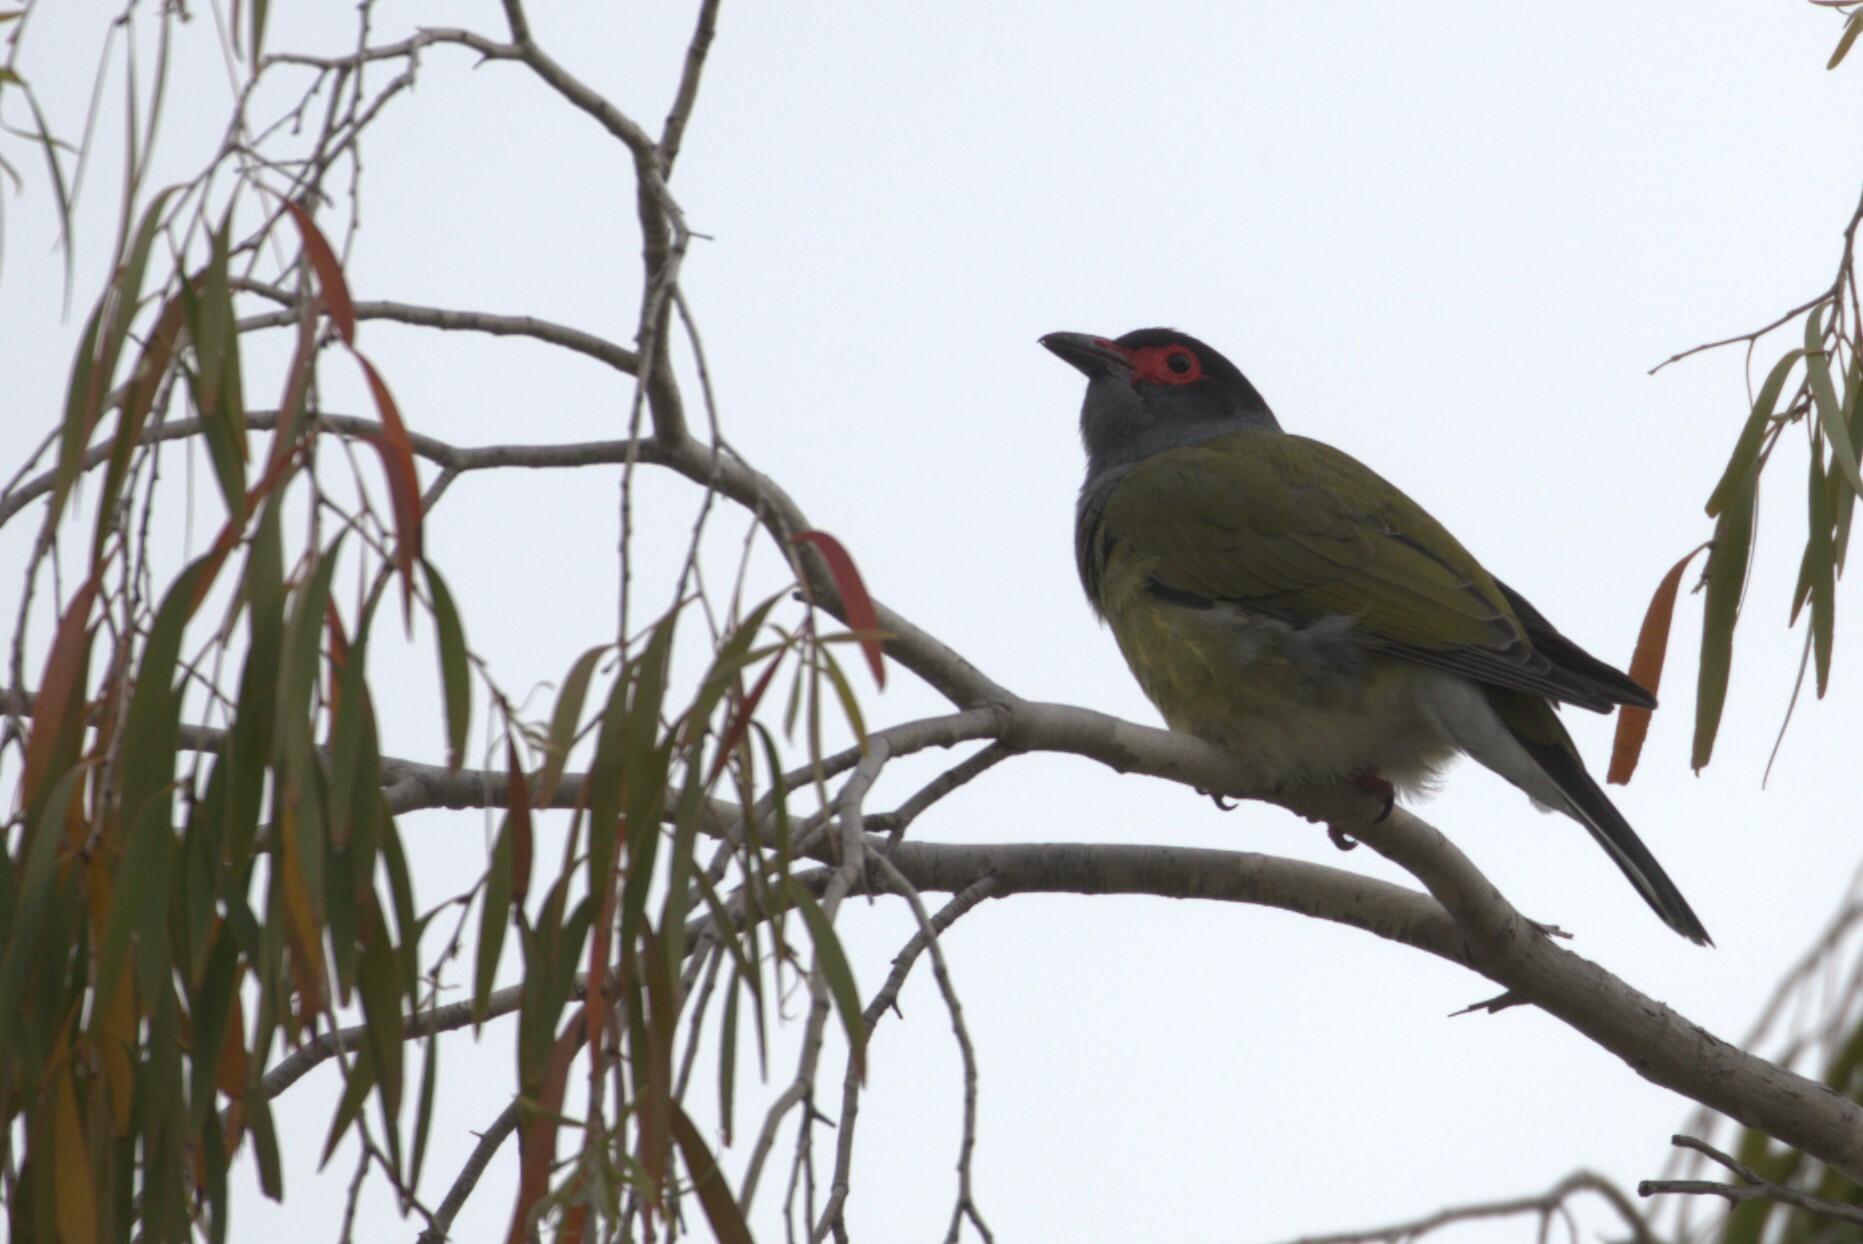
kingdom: Animalia
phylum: Chordata
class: Aves
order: Passeriformes
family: Oriolidae
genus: Sphecotheres
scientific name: Sphecotheres vieilloti
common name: Australasian figbird
